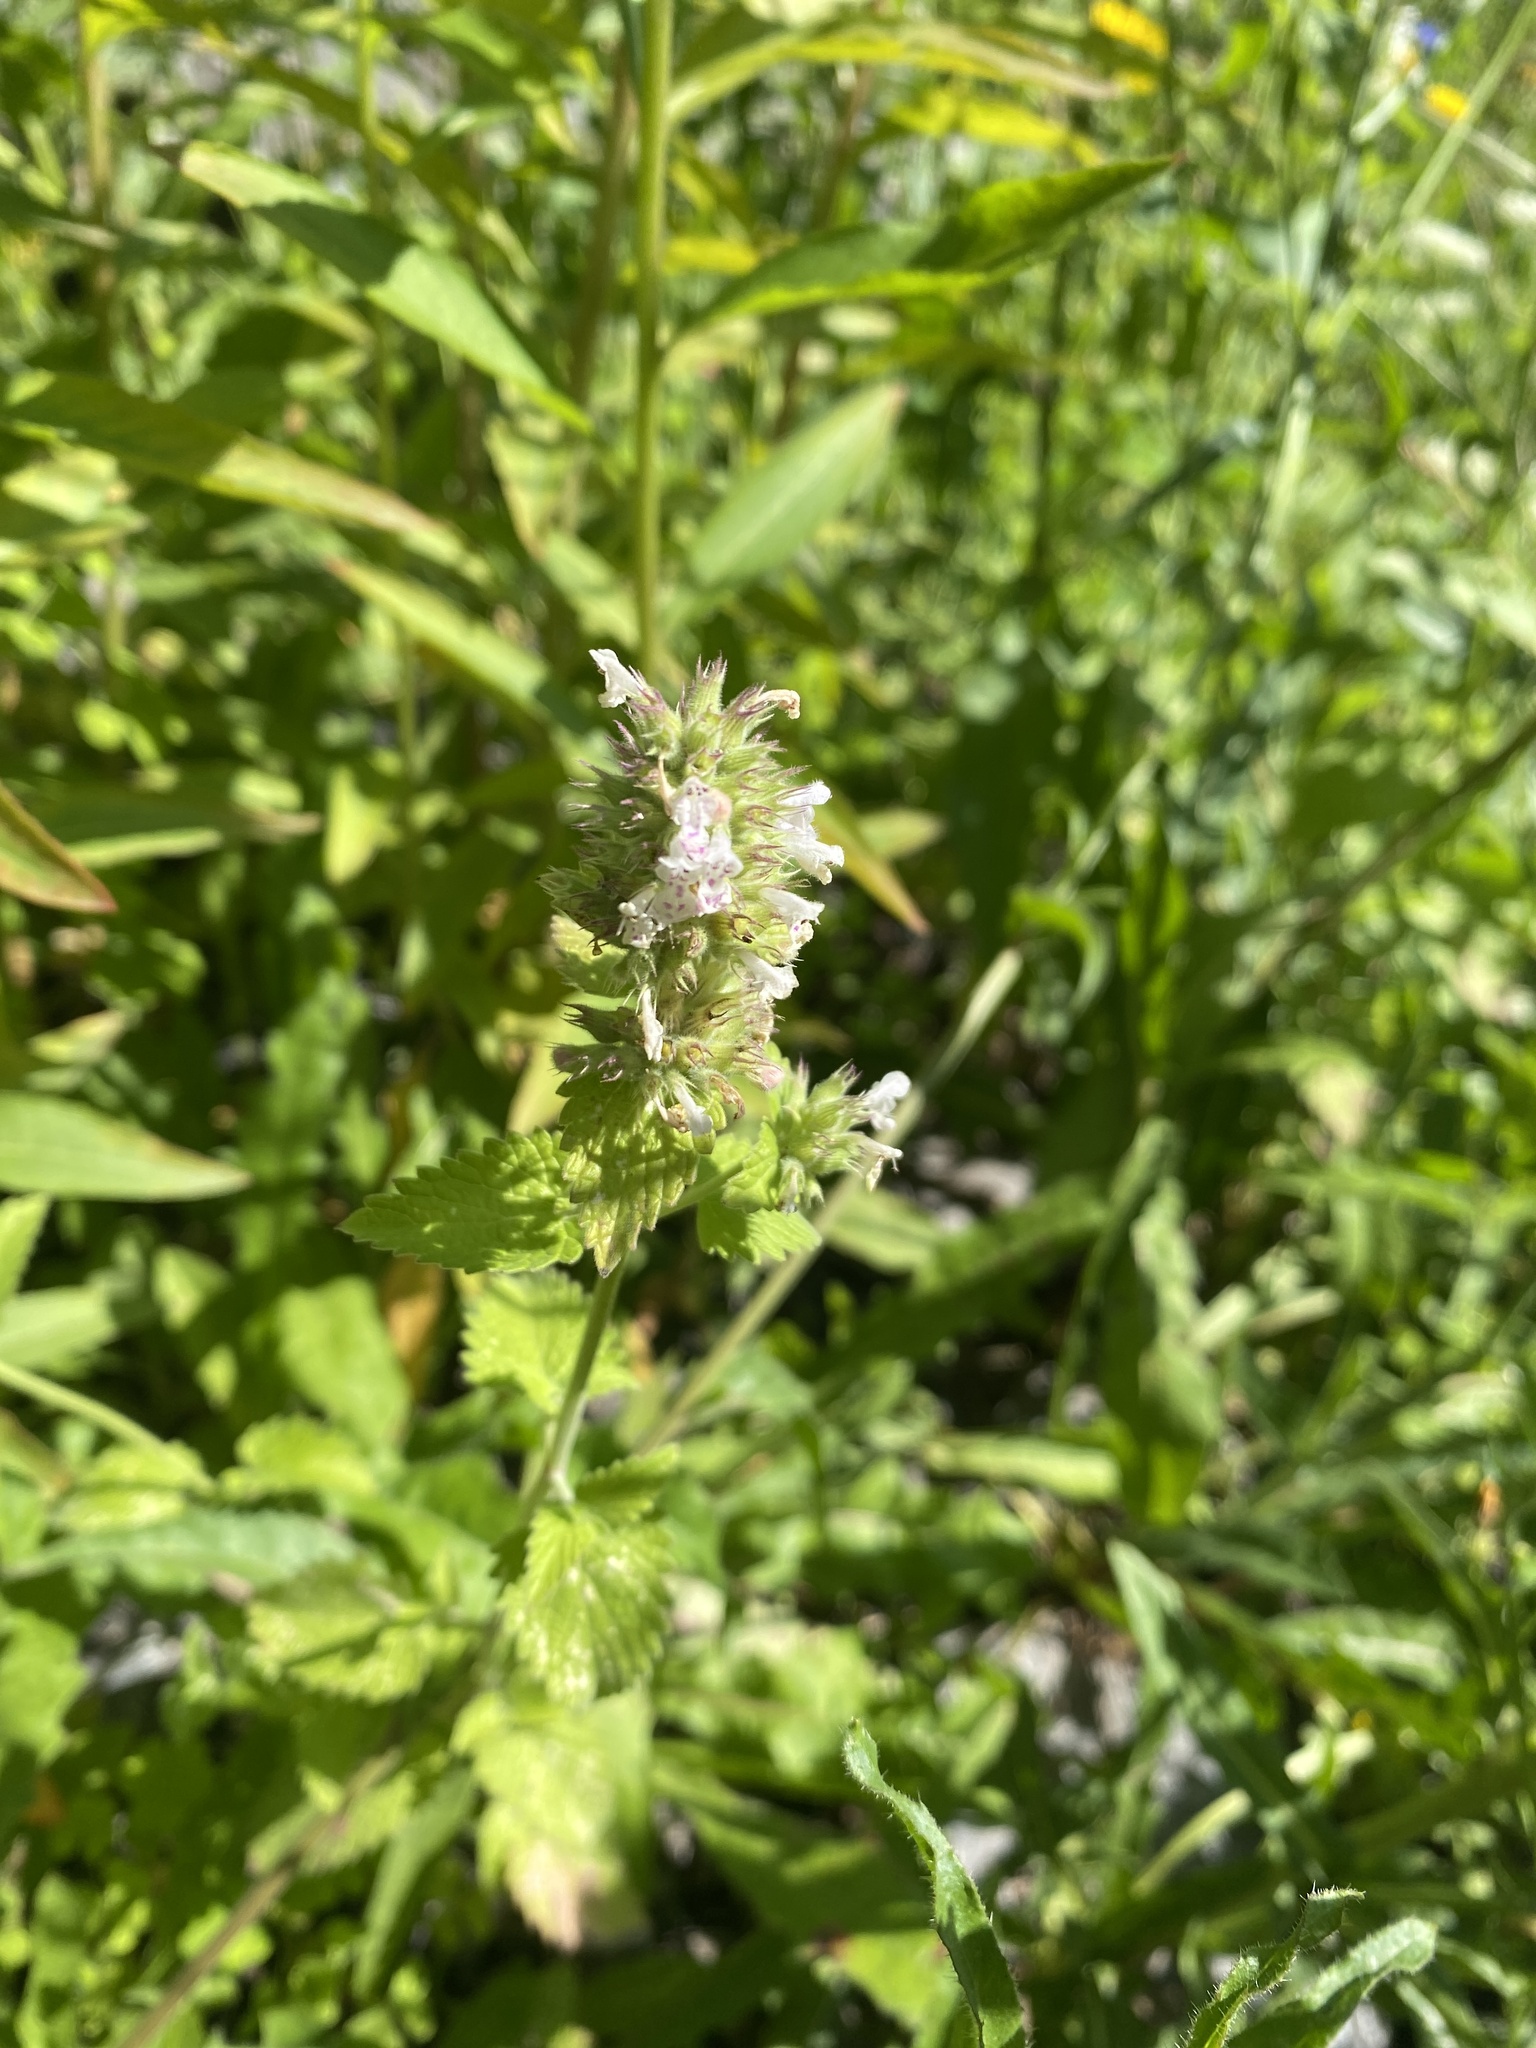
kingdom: Plantae
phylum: Tracheophyta
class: Magnoliopsida
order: Lamiales
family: Lamiaceae
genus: Nepeta
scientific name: Nepeta cataria
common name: Catnip
